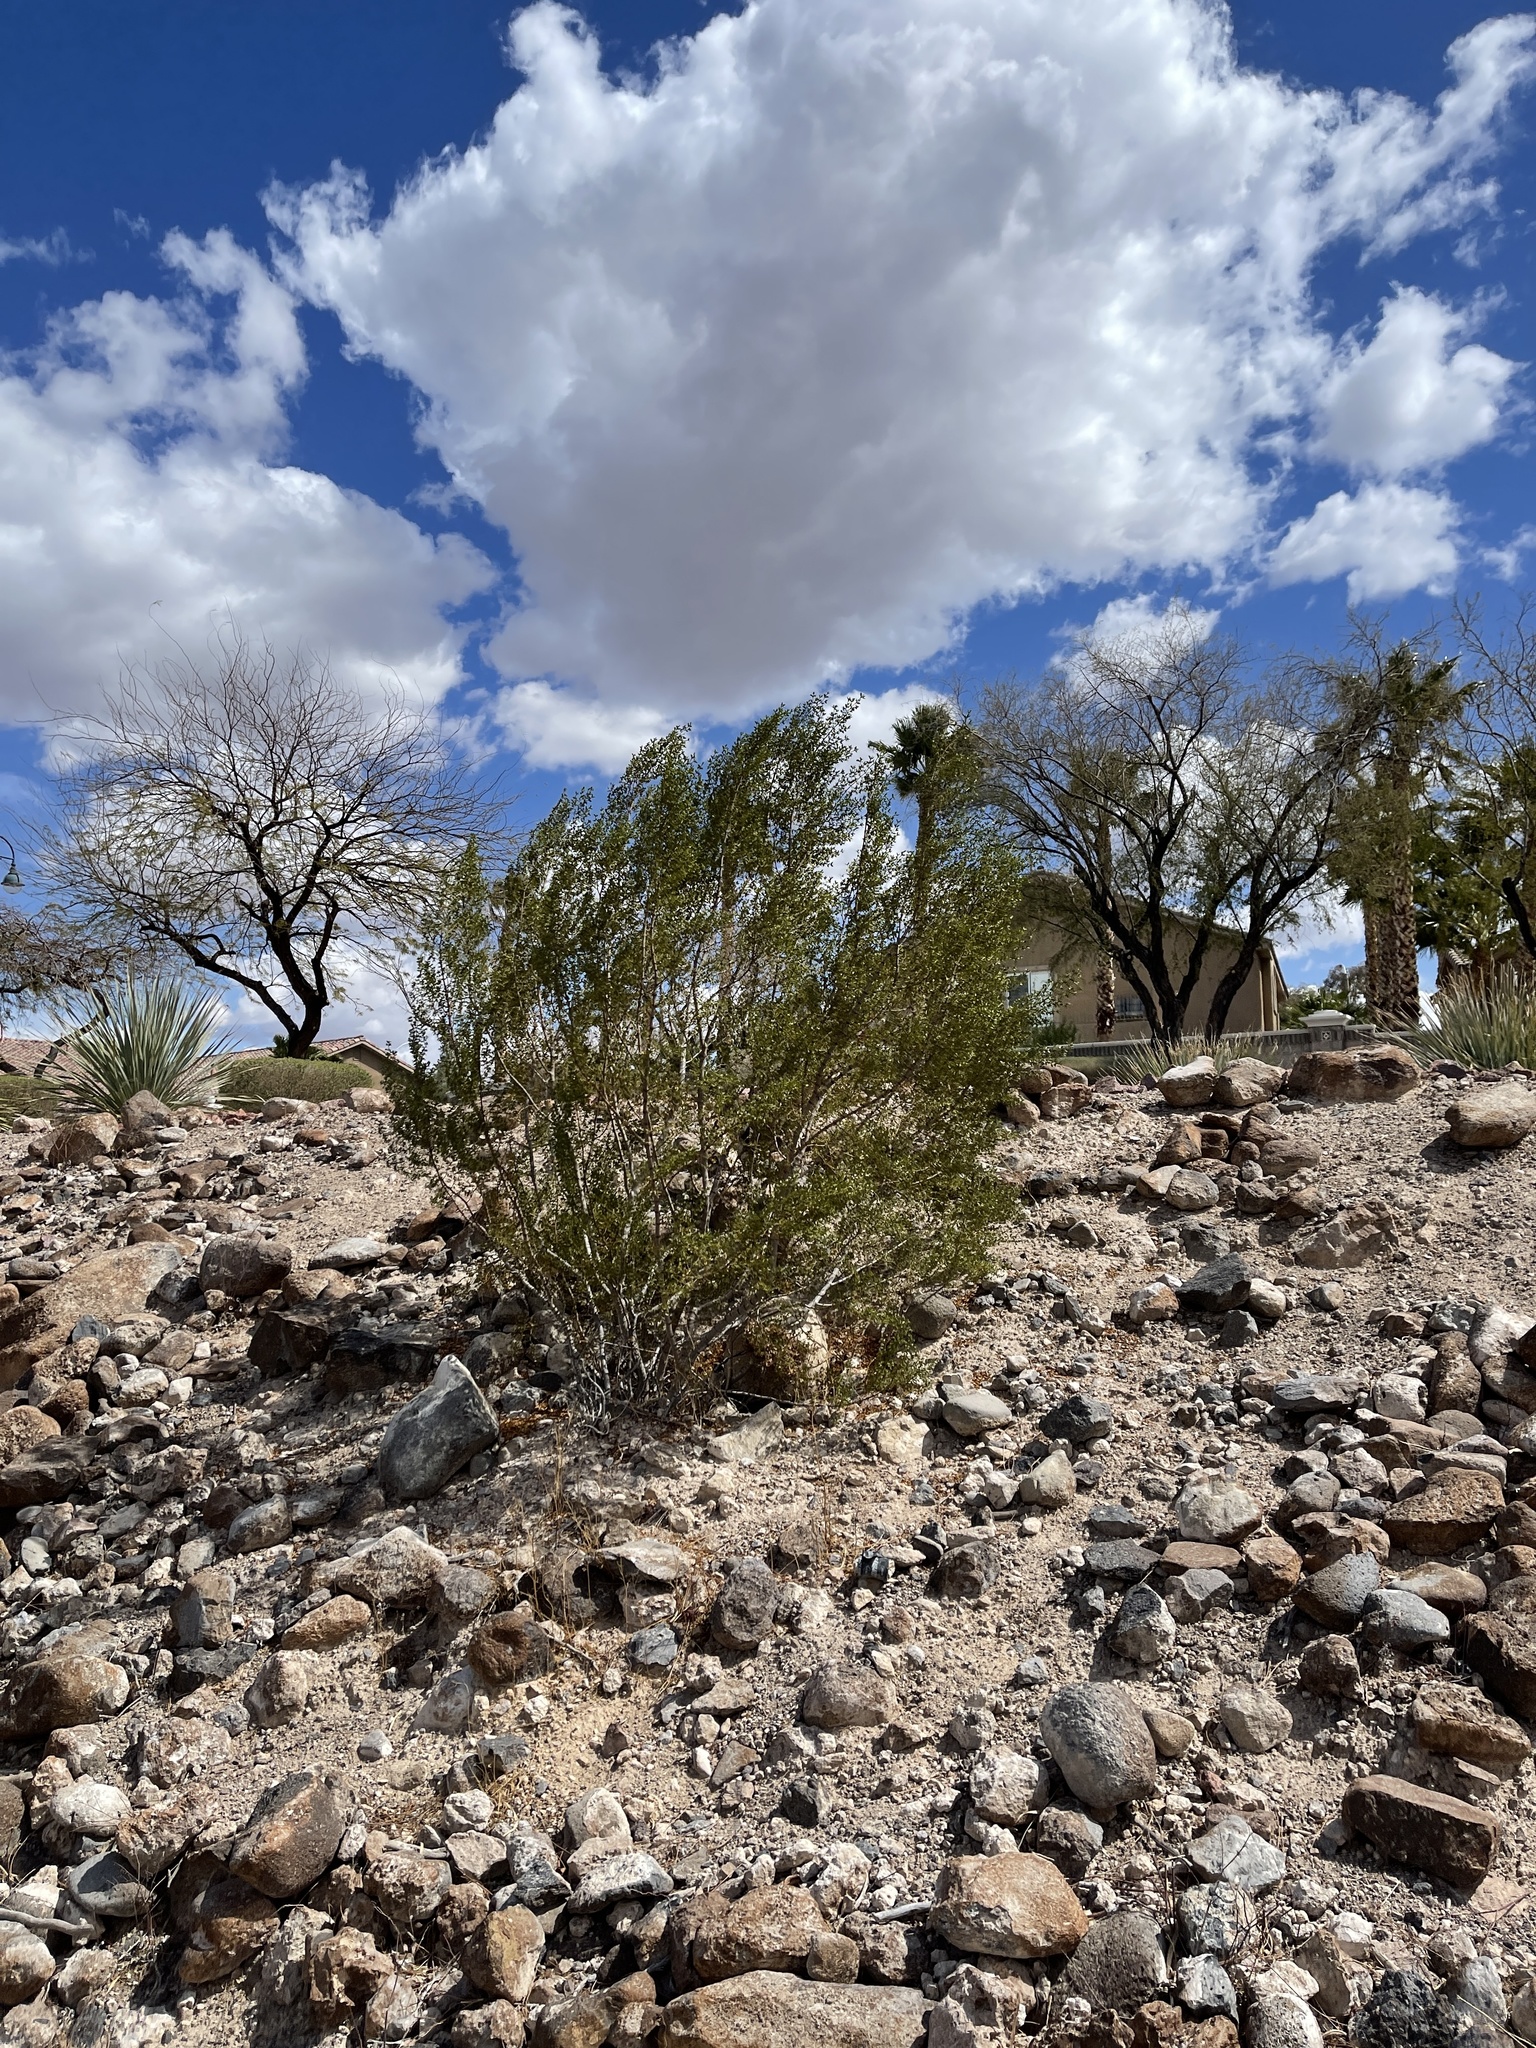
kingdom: Plantae
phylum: Tracheophyta
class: Magnoliopsida
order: Zygophyllales
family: Zygophyllaceae
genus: Larrea
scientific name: Larrea tridentata
